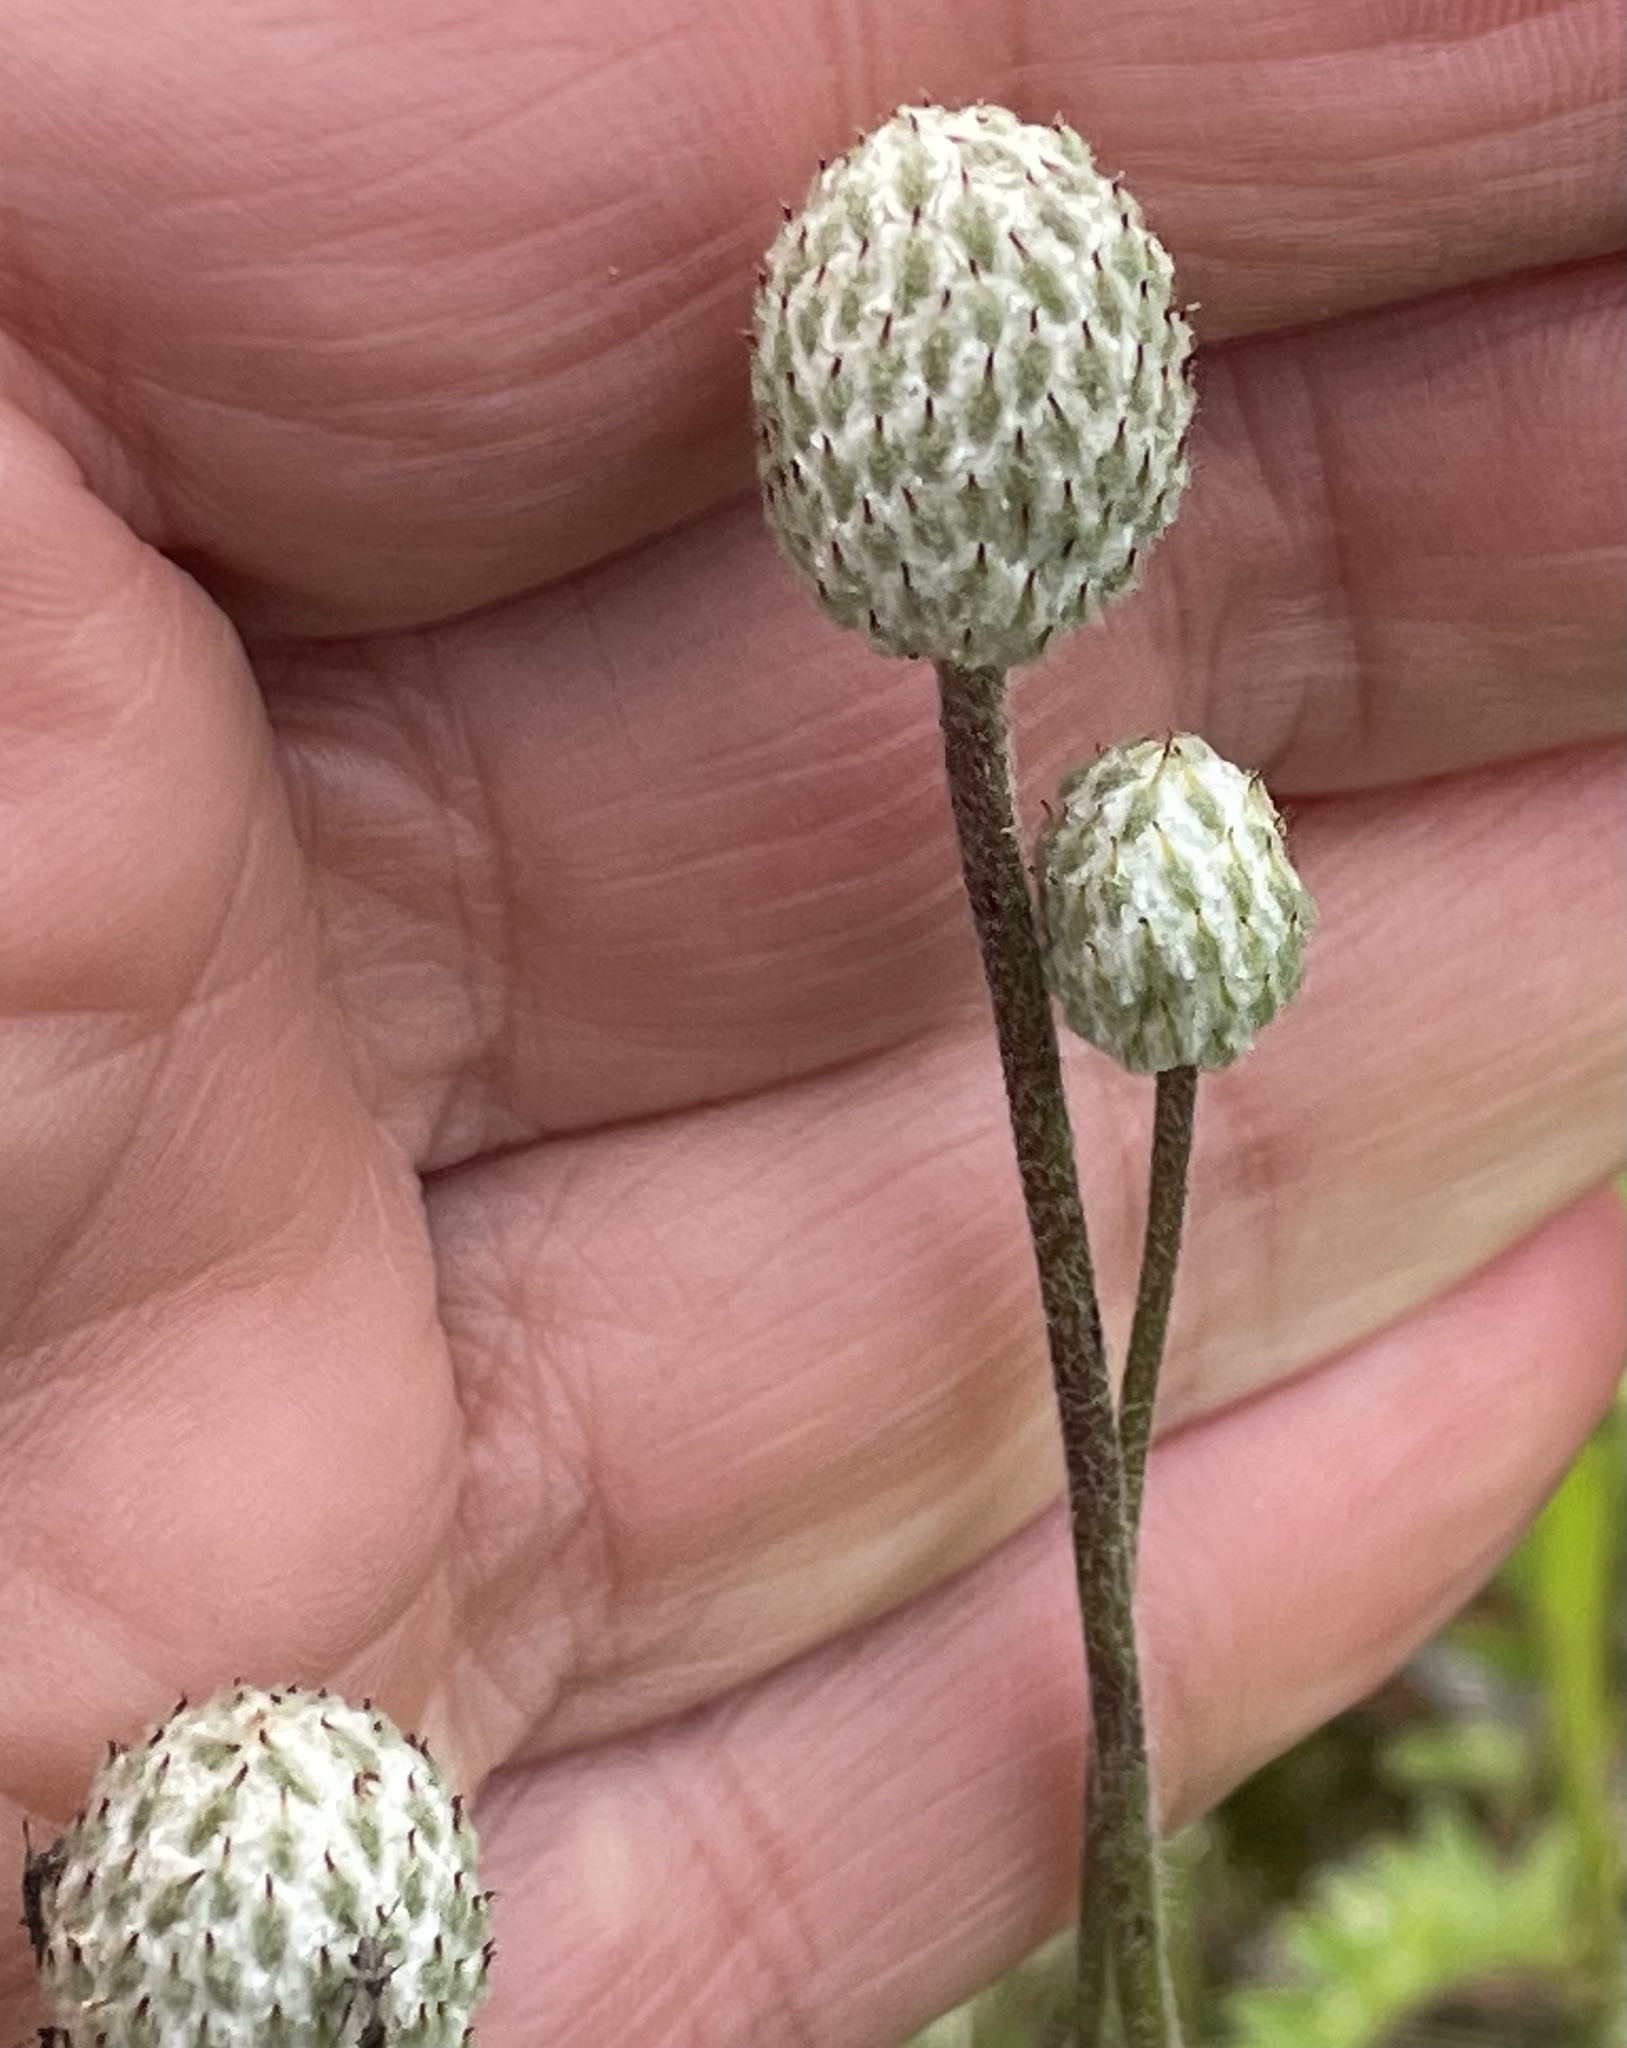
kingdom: Plantae
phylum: Tracheophyta
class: Magnoliopsida
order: Ranunculales
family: Ranunculaceae
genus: Anemone
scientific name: Anemone multifida
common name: Bird's-foot anemone
